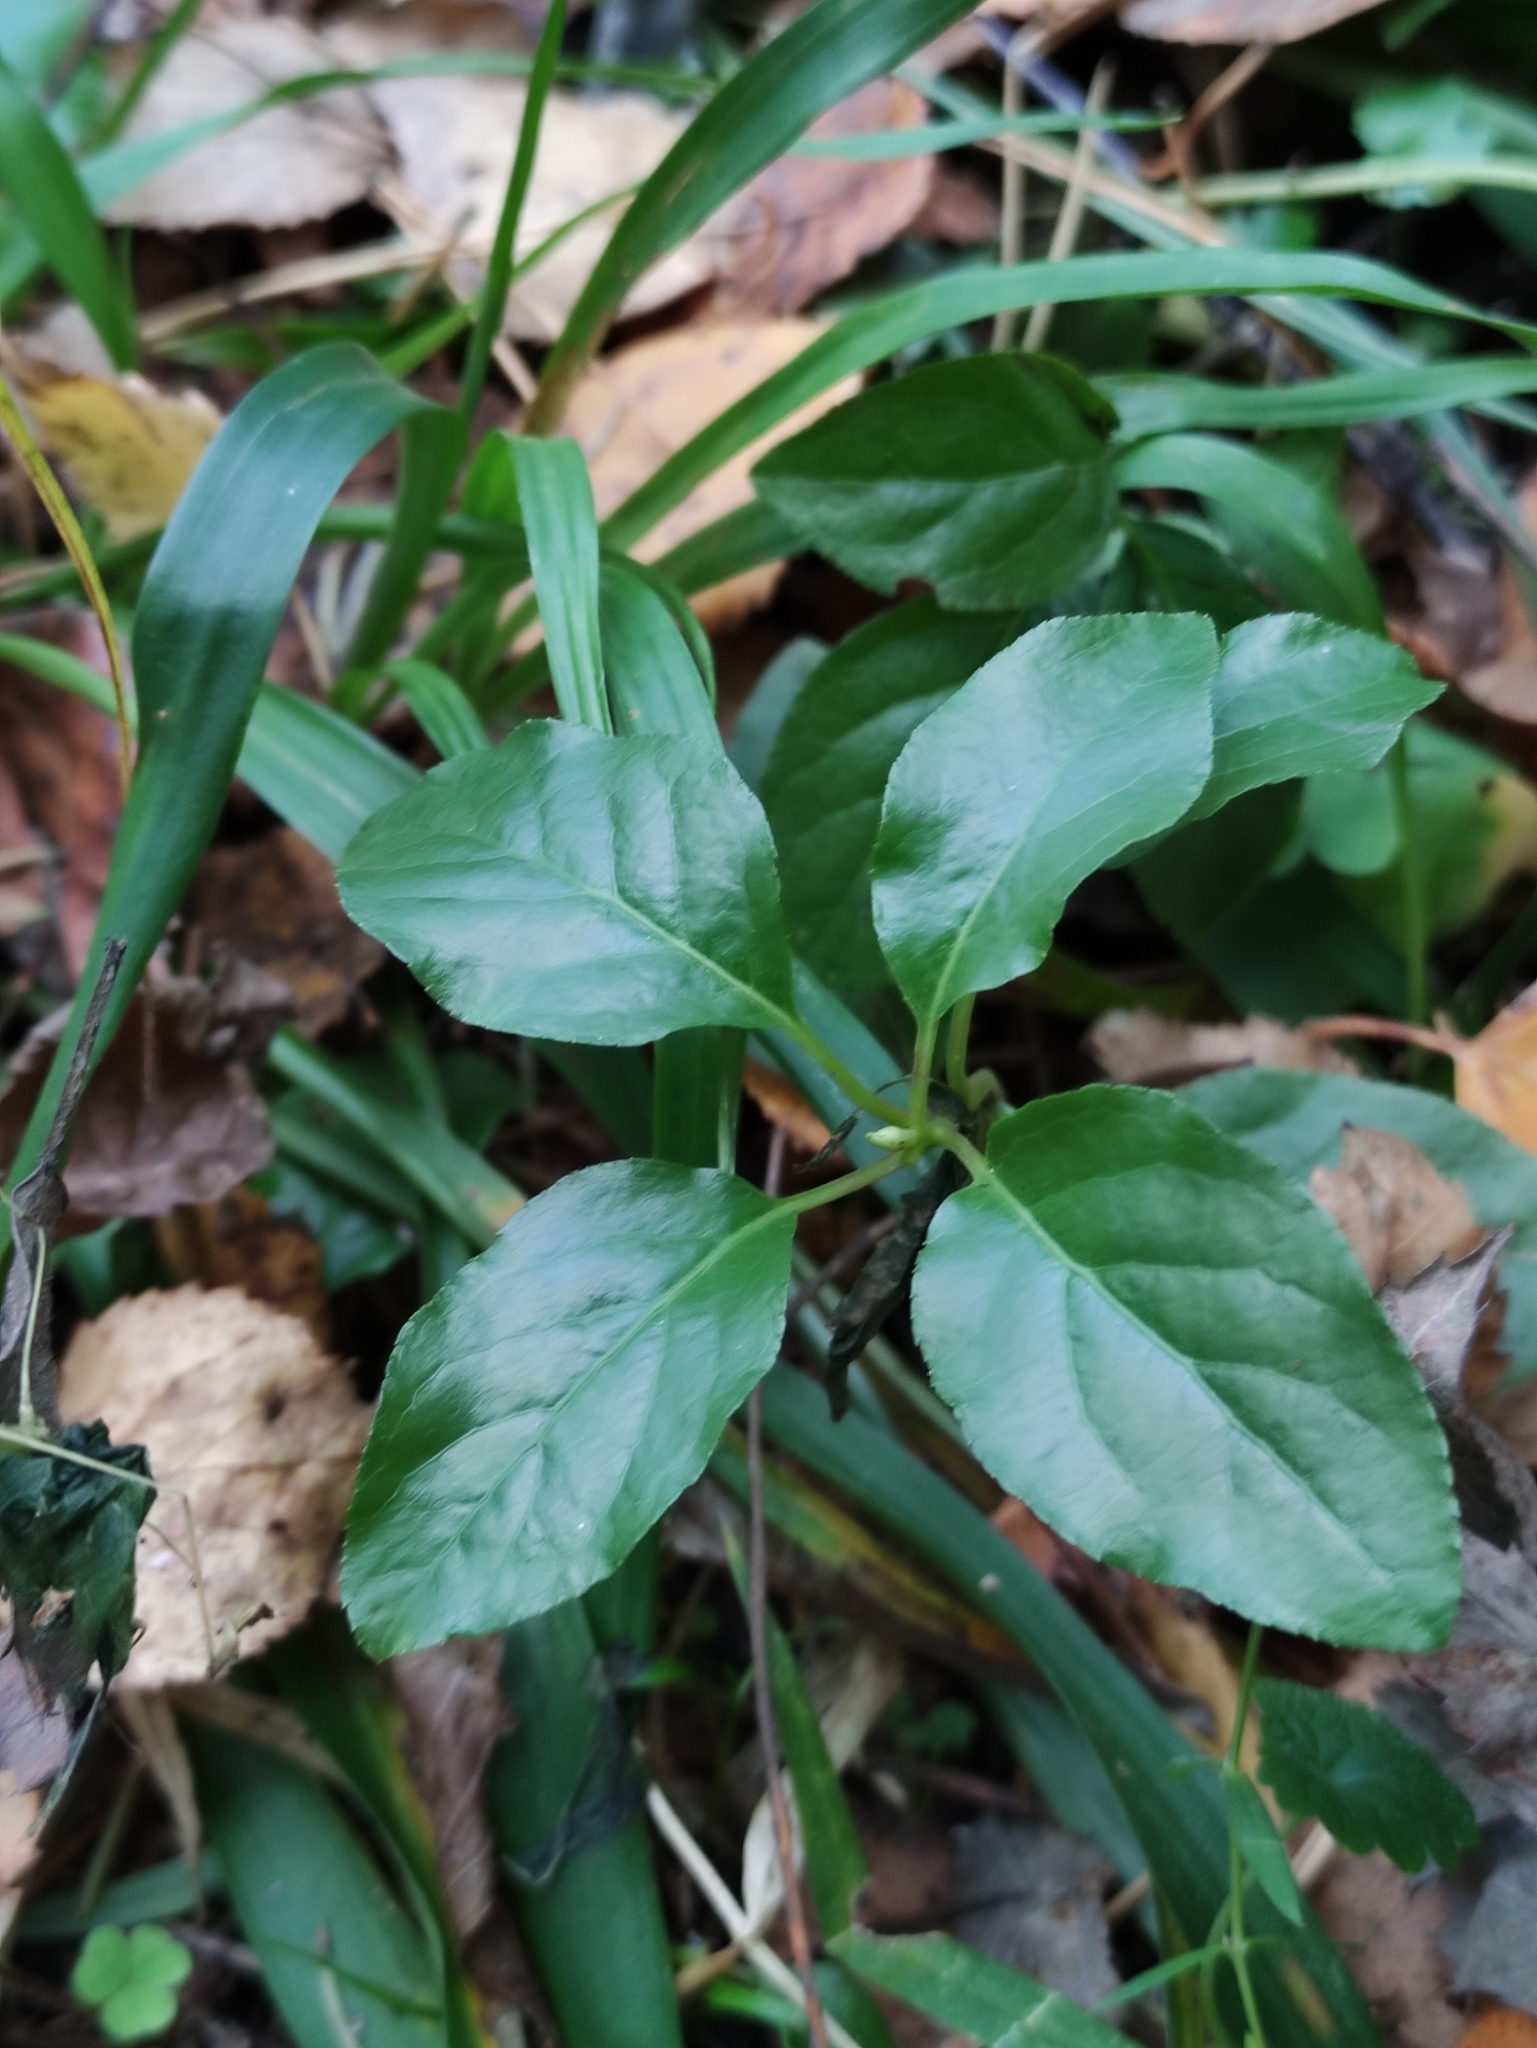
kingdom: Plantae
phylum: Tracheophyta
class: Magnoliopsida
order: Ericales
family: Ericaceae
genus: Orthilia
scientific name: Orthilia secunda
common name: One-sided orthilia
